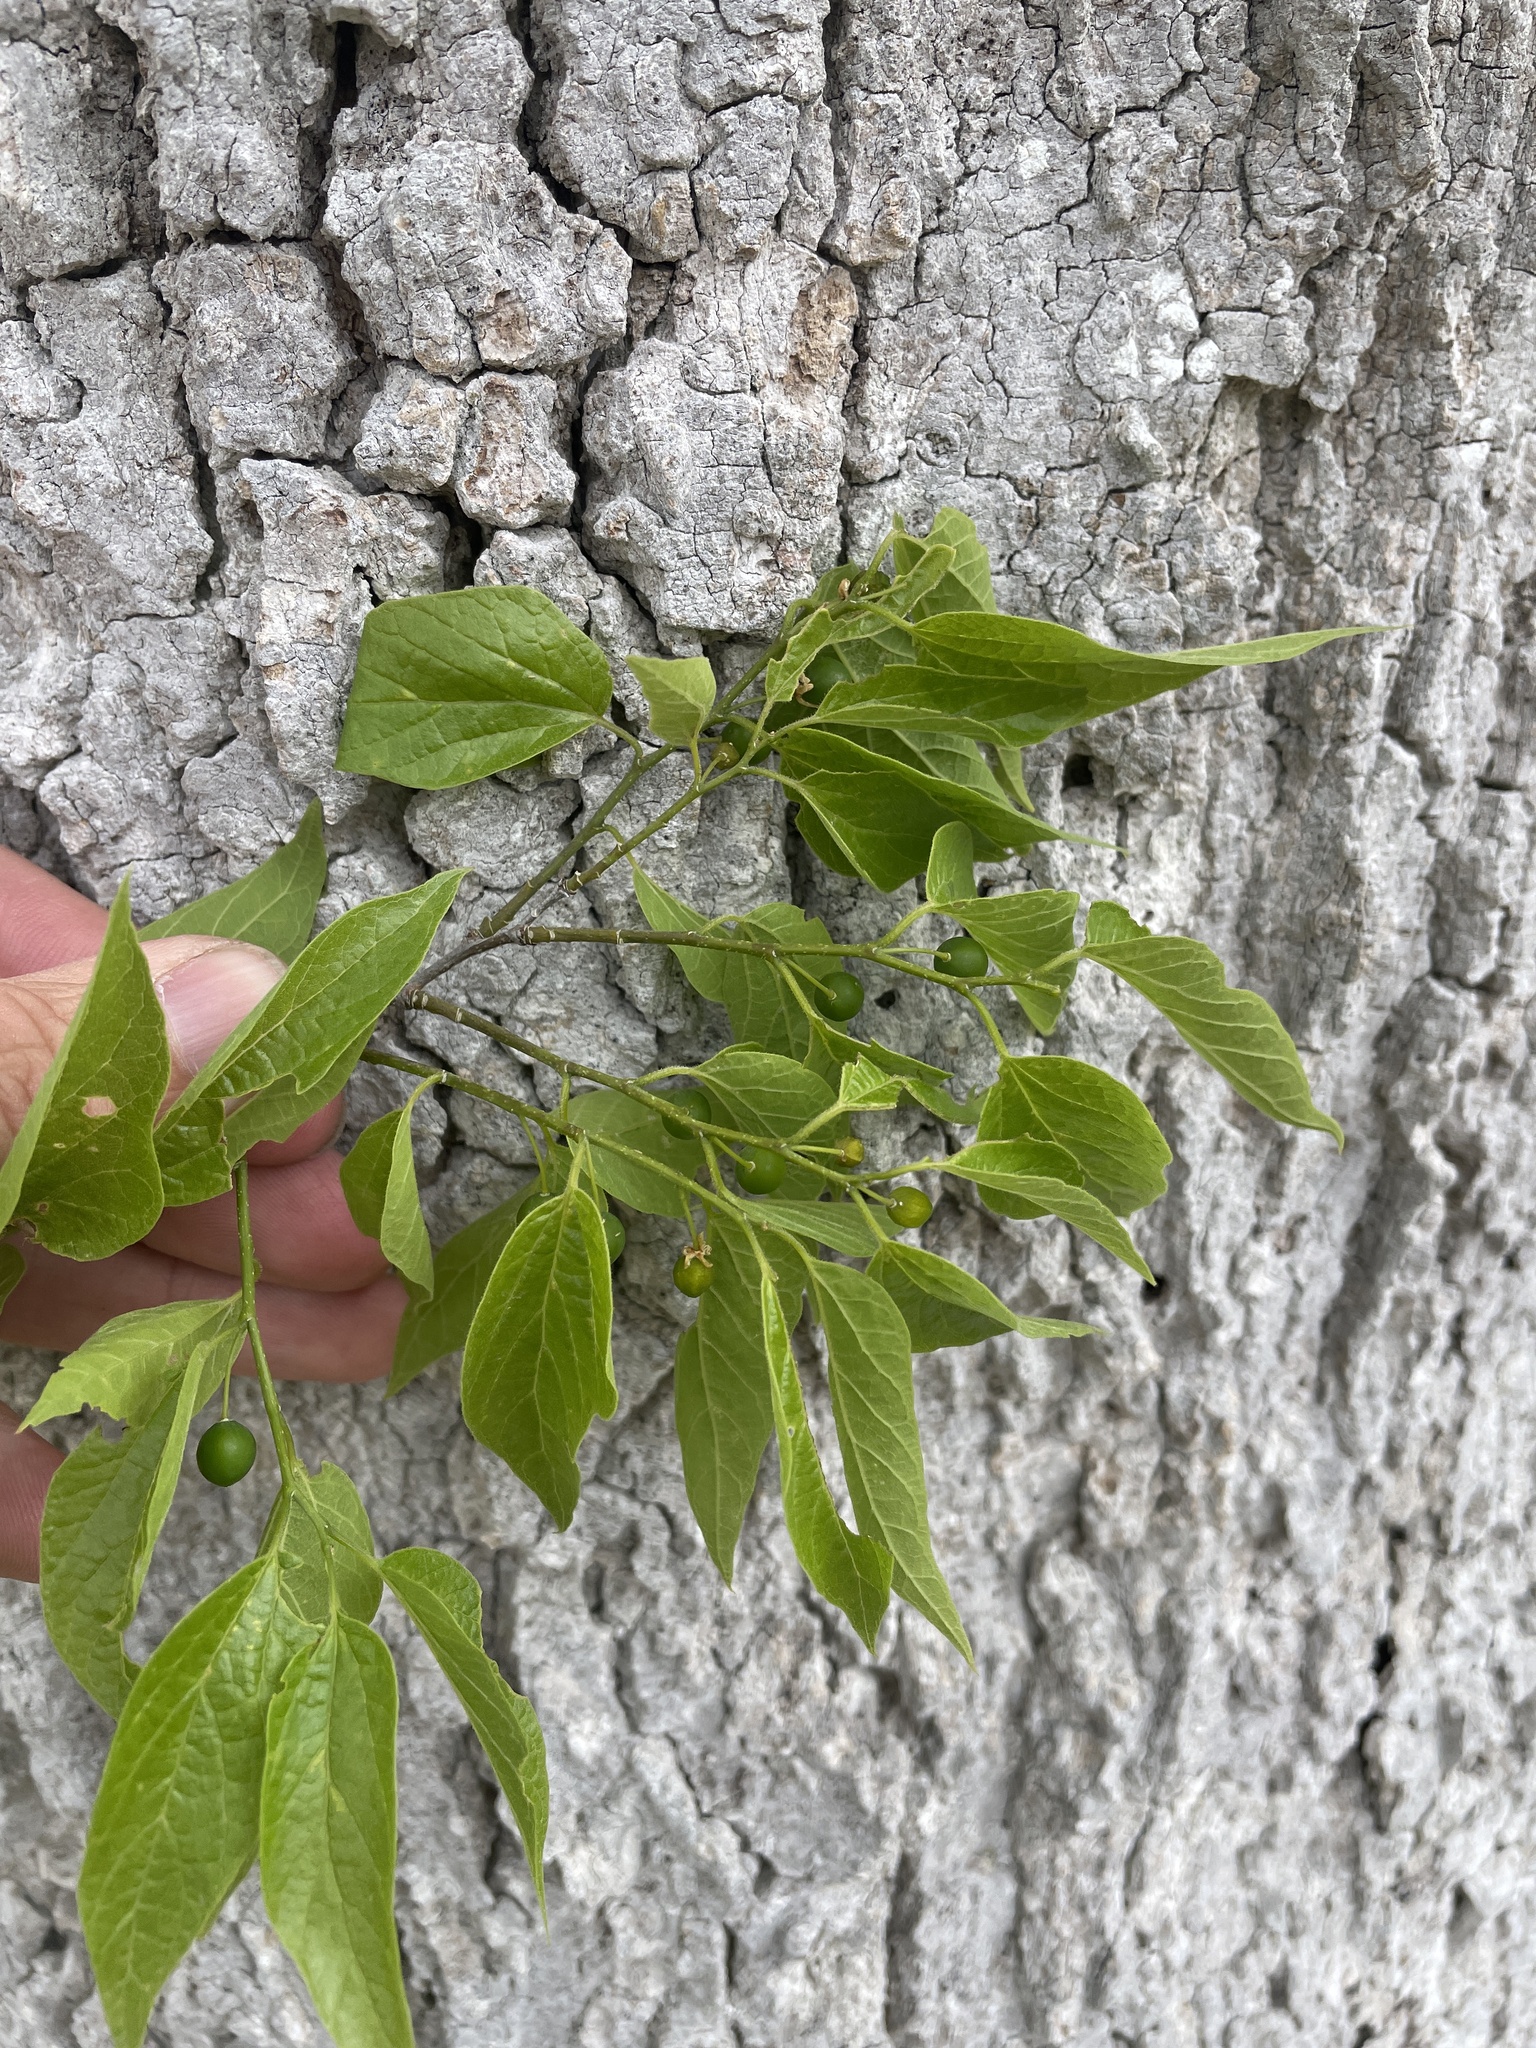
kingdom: Plantae
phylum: Tracheophyta
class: Magnoliopsida
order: Rosales
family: Cannabaceae
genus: Celtis
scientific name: Celtis laevigata
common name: Sugarberry
